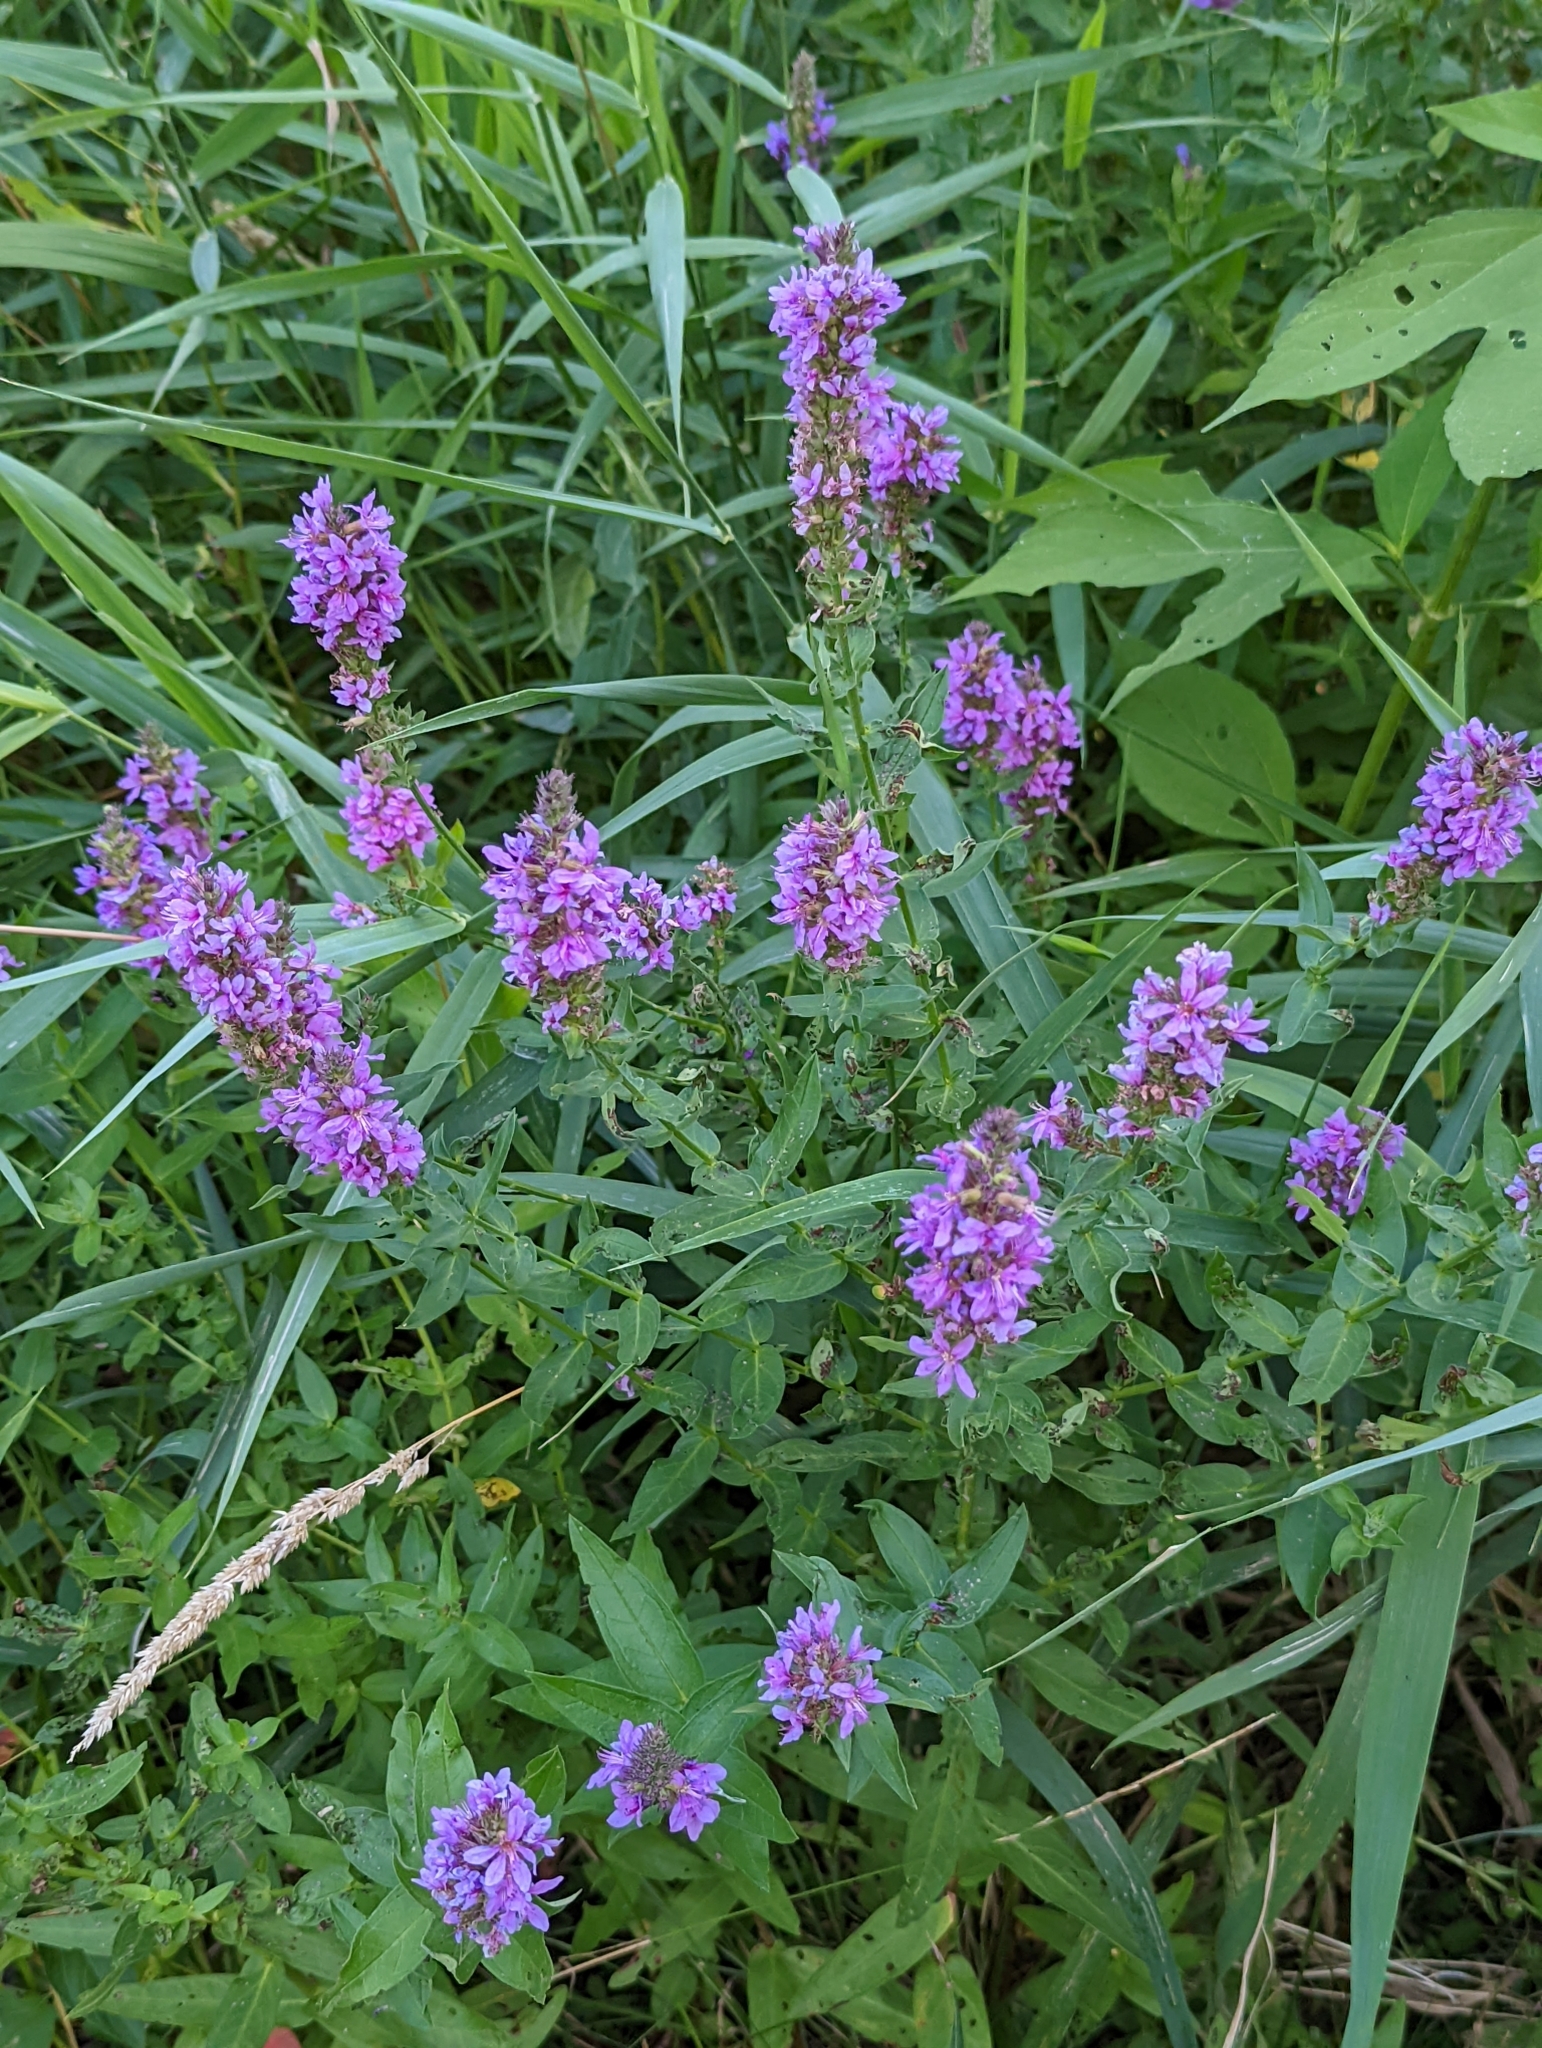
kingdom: Plantae
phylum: Tracheophyta
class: Magnoliopsida
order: Myrtales
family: Lythraceae
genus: Lythrum
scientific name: Lythrum salicaria
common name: Purple loosestrife
